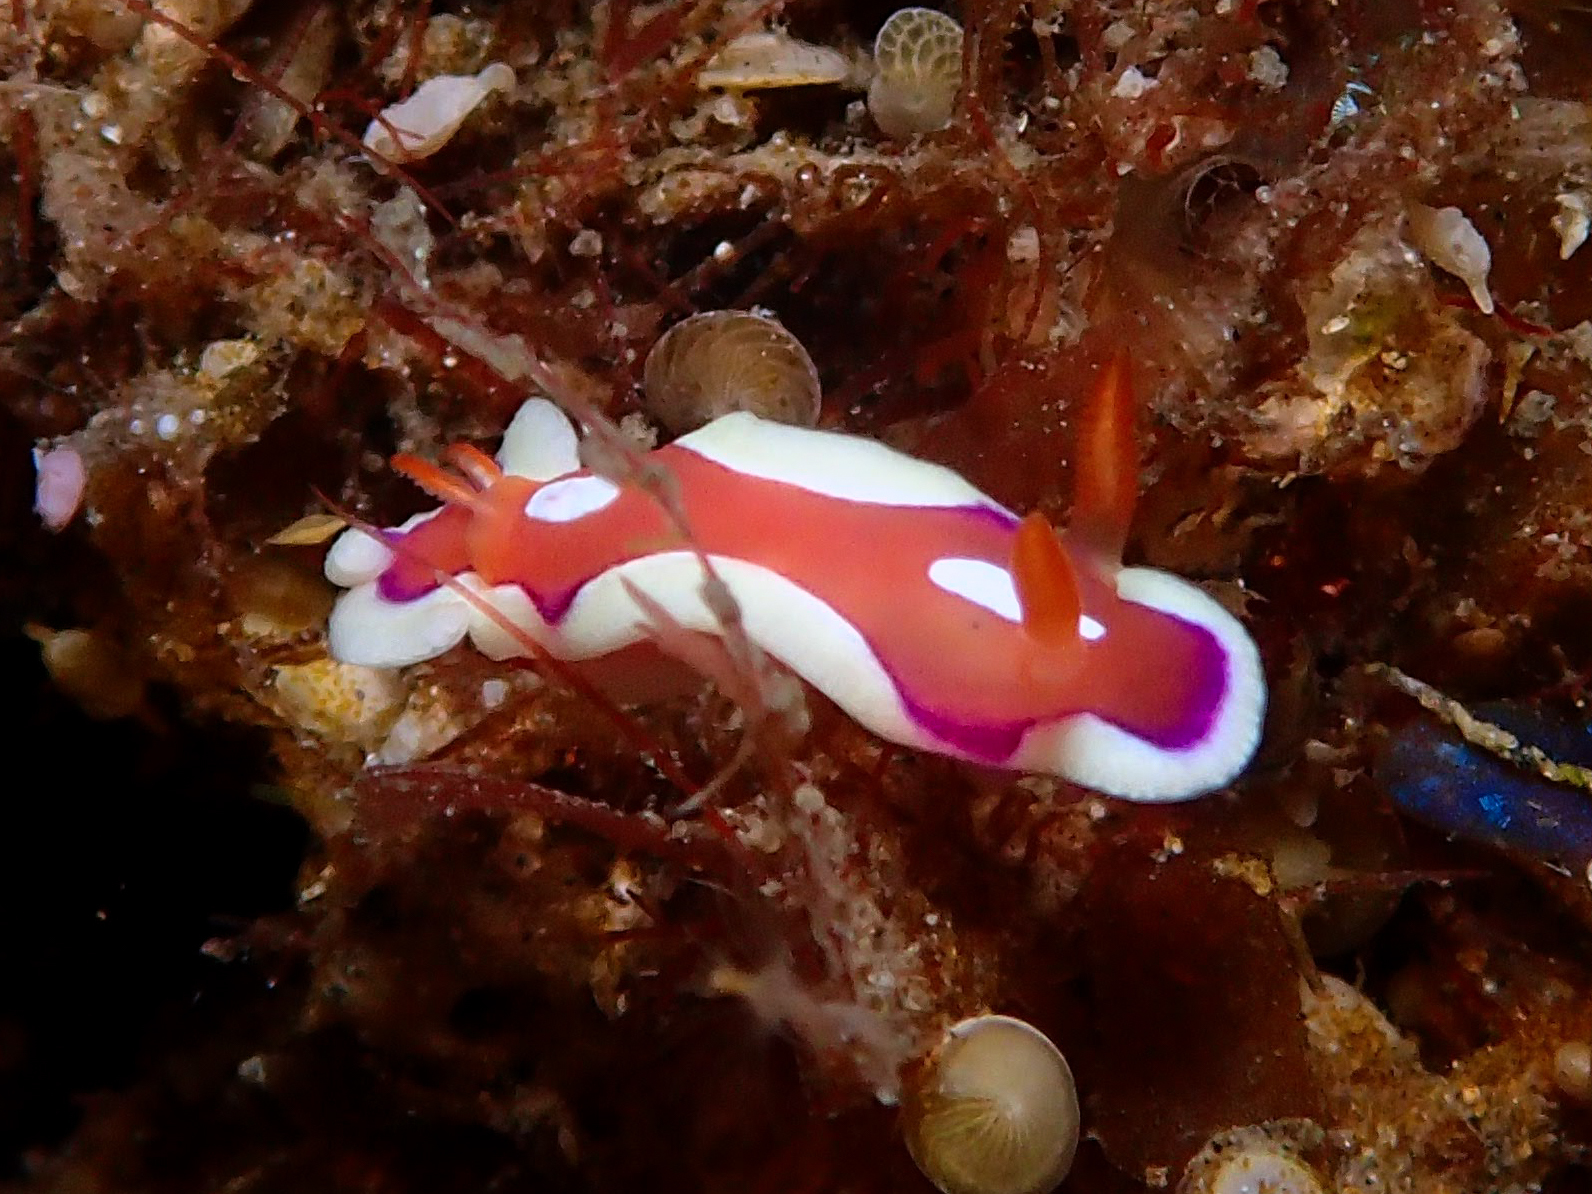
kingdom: Animalia
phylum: Mollusca
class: Gastropoda
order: Nudibranchia
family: Chromodorididae
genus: Mexichromis
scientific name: Mexichromis pusilla
